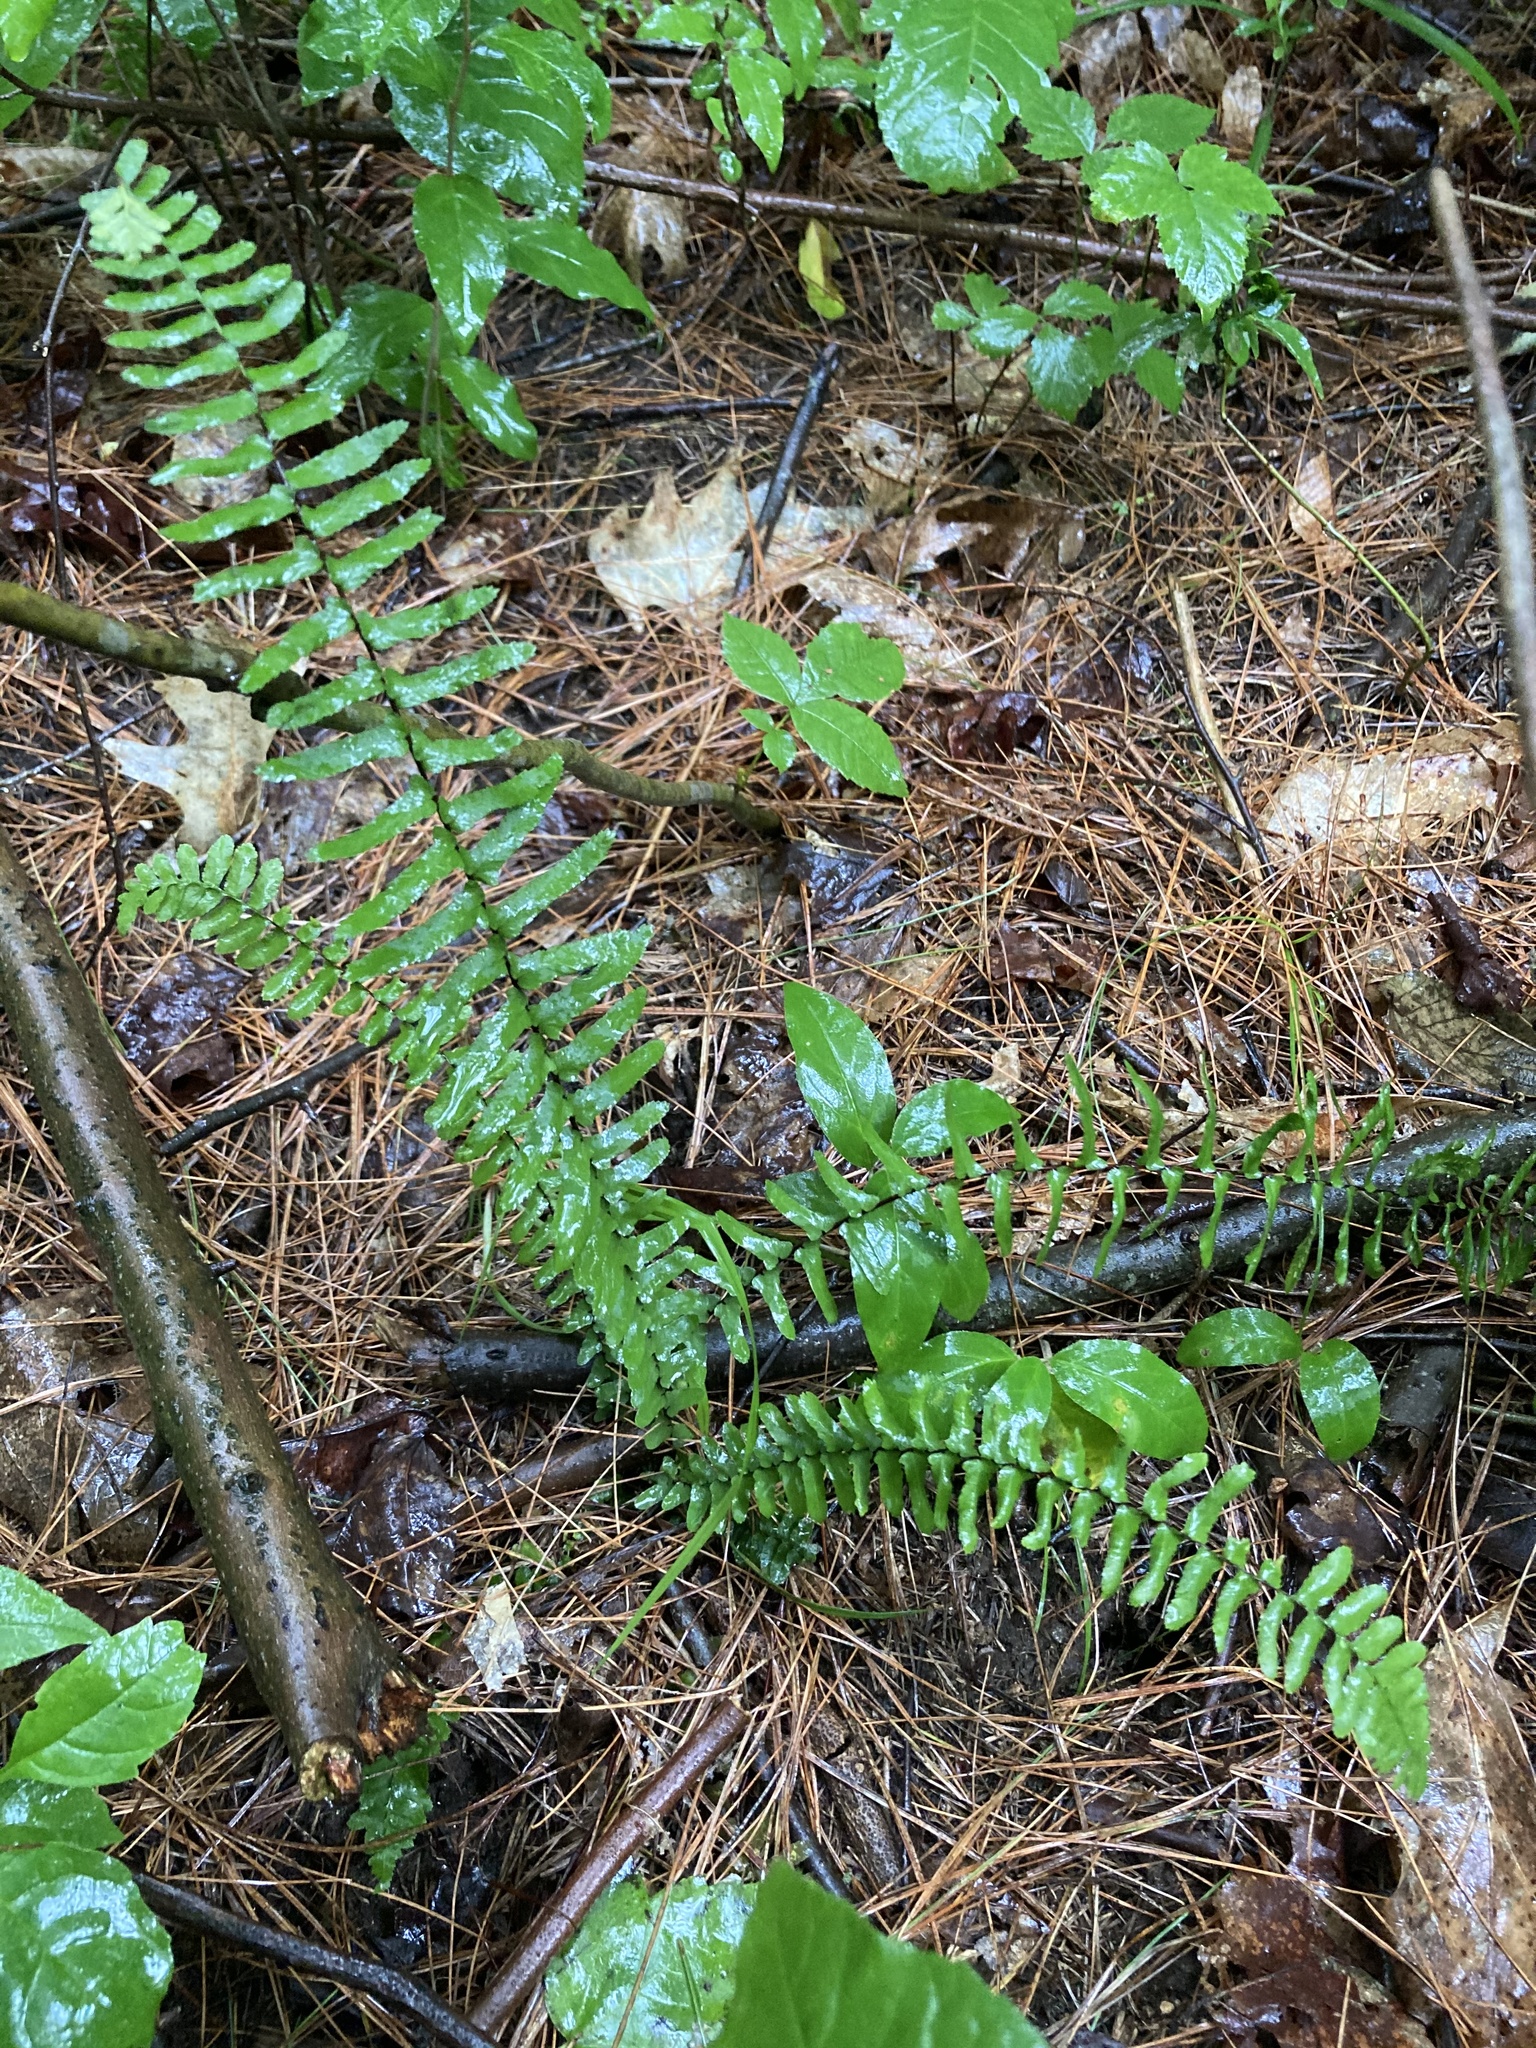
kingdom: Plantae
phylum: Tracheophyta
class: Polypodiopsida
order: Polypodiales
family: Aspleniaceae
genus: Asplenium
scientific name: Asplenium platyneuron
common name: Ebony spleenwort
